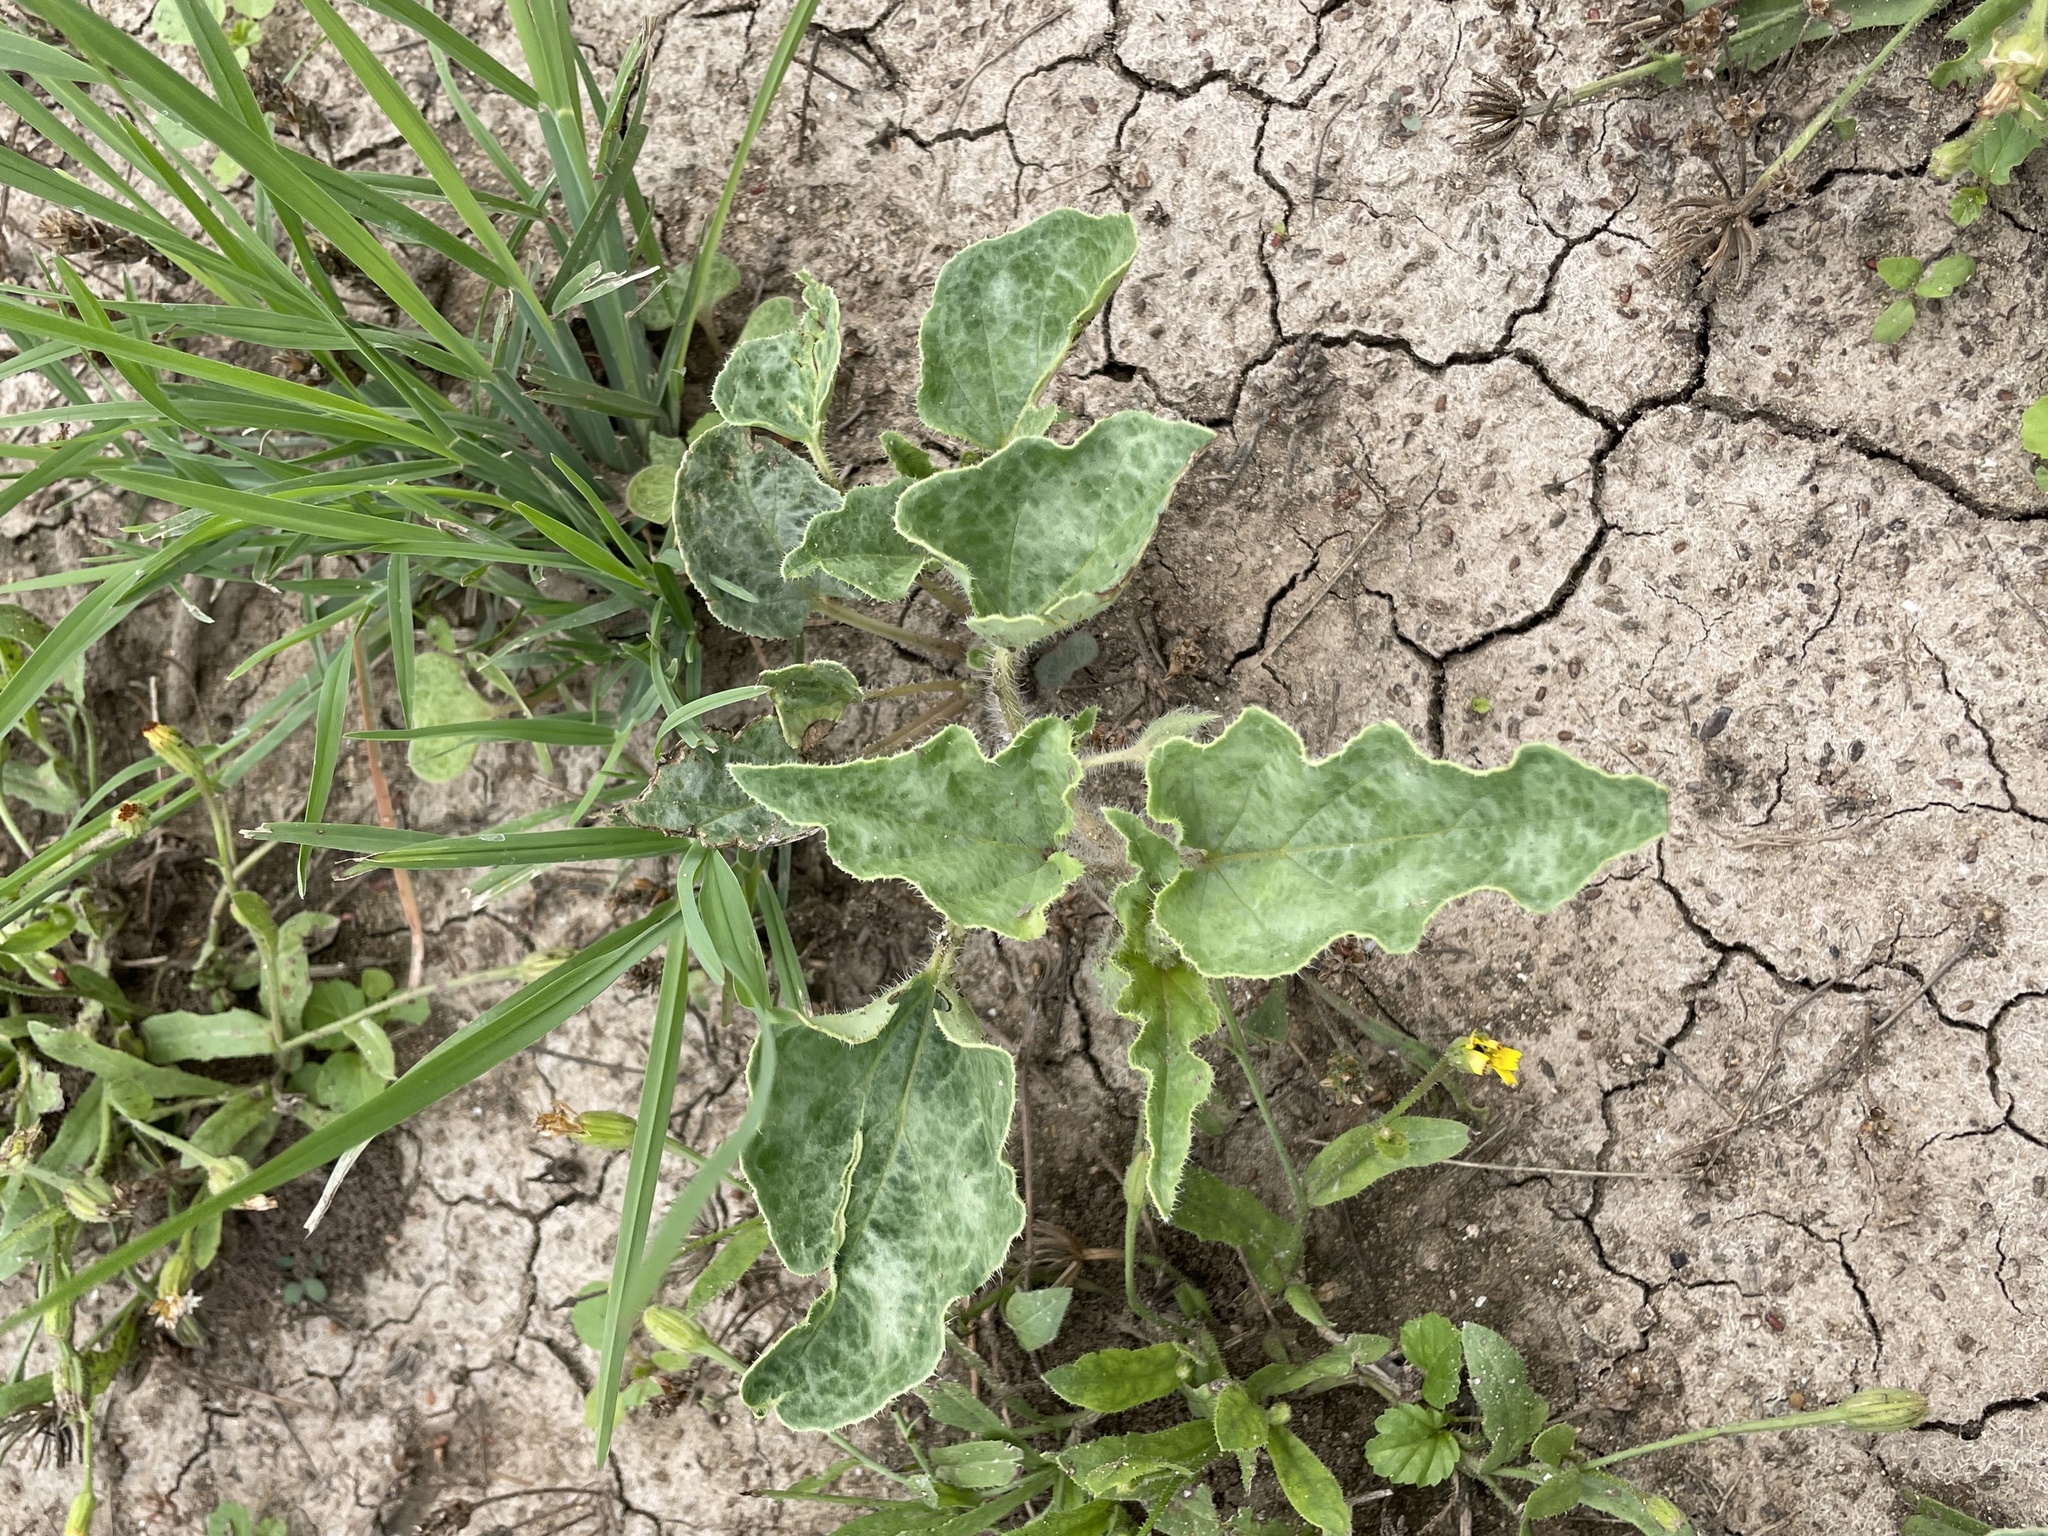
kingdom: Plantae
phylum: Tracheophyta
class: Magnoliopsida
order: Caryophyllales
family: Nyctaginaceae
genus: Nyctaginia
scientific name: Nyctaginia capitata
